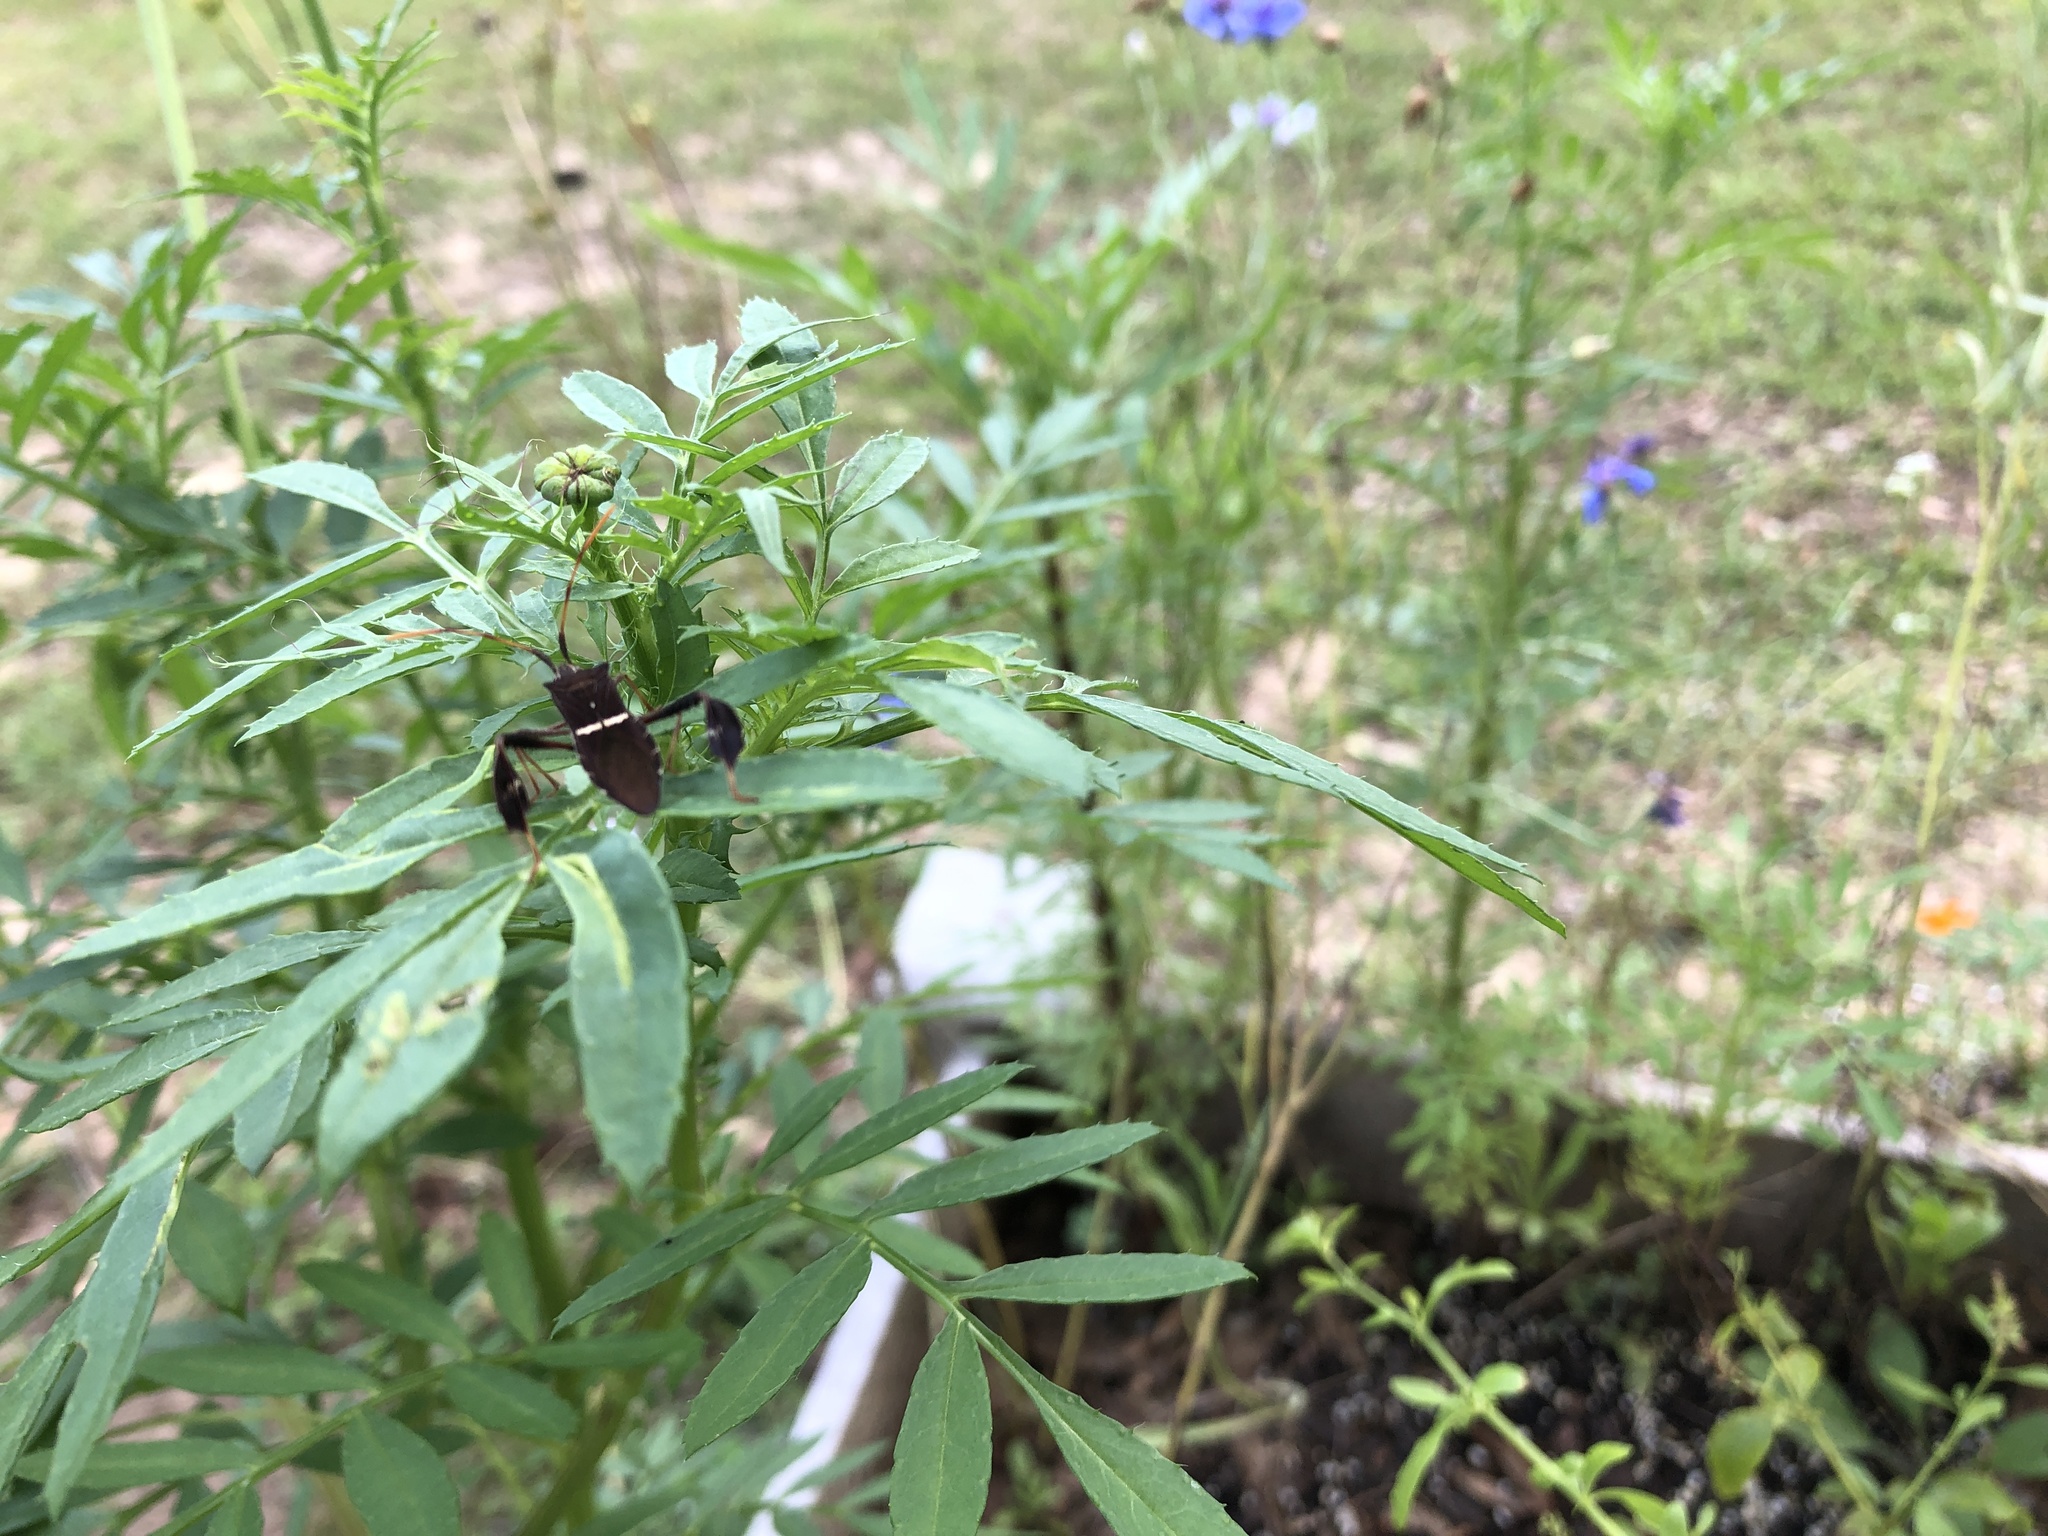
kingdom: Animalia
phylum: Arthropoda
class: Insecta
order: Hemiptera
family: Coreidae
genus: Leptoglossus
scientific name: Leptoglossus phyllopus
